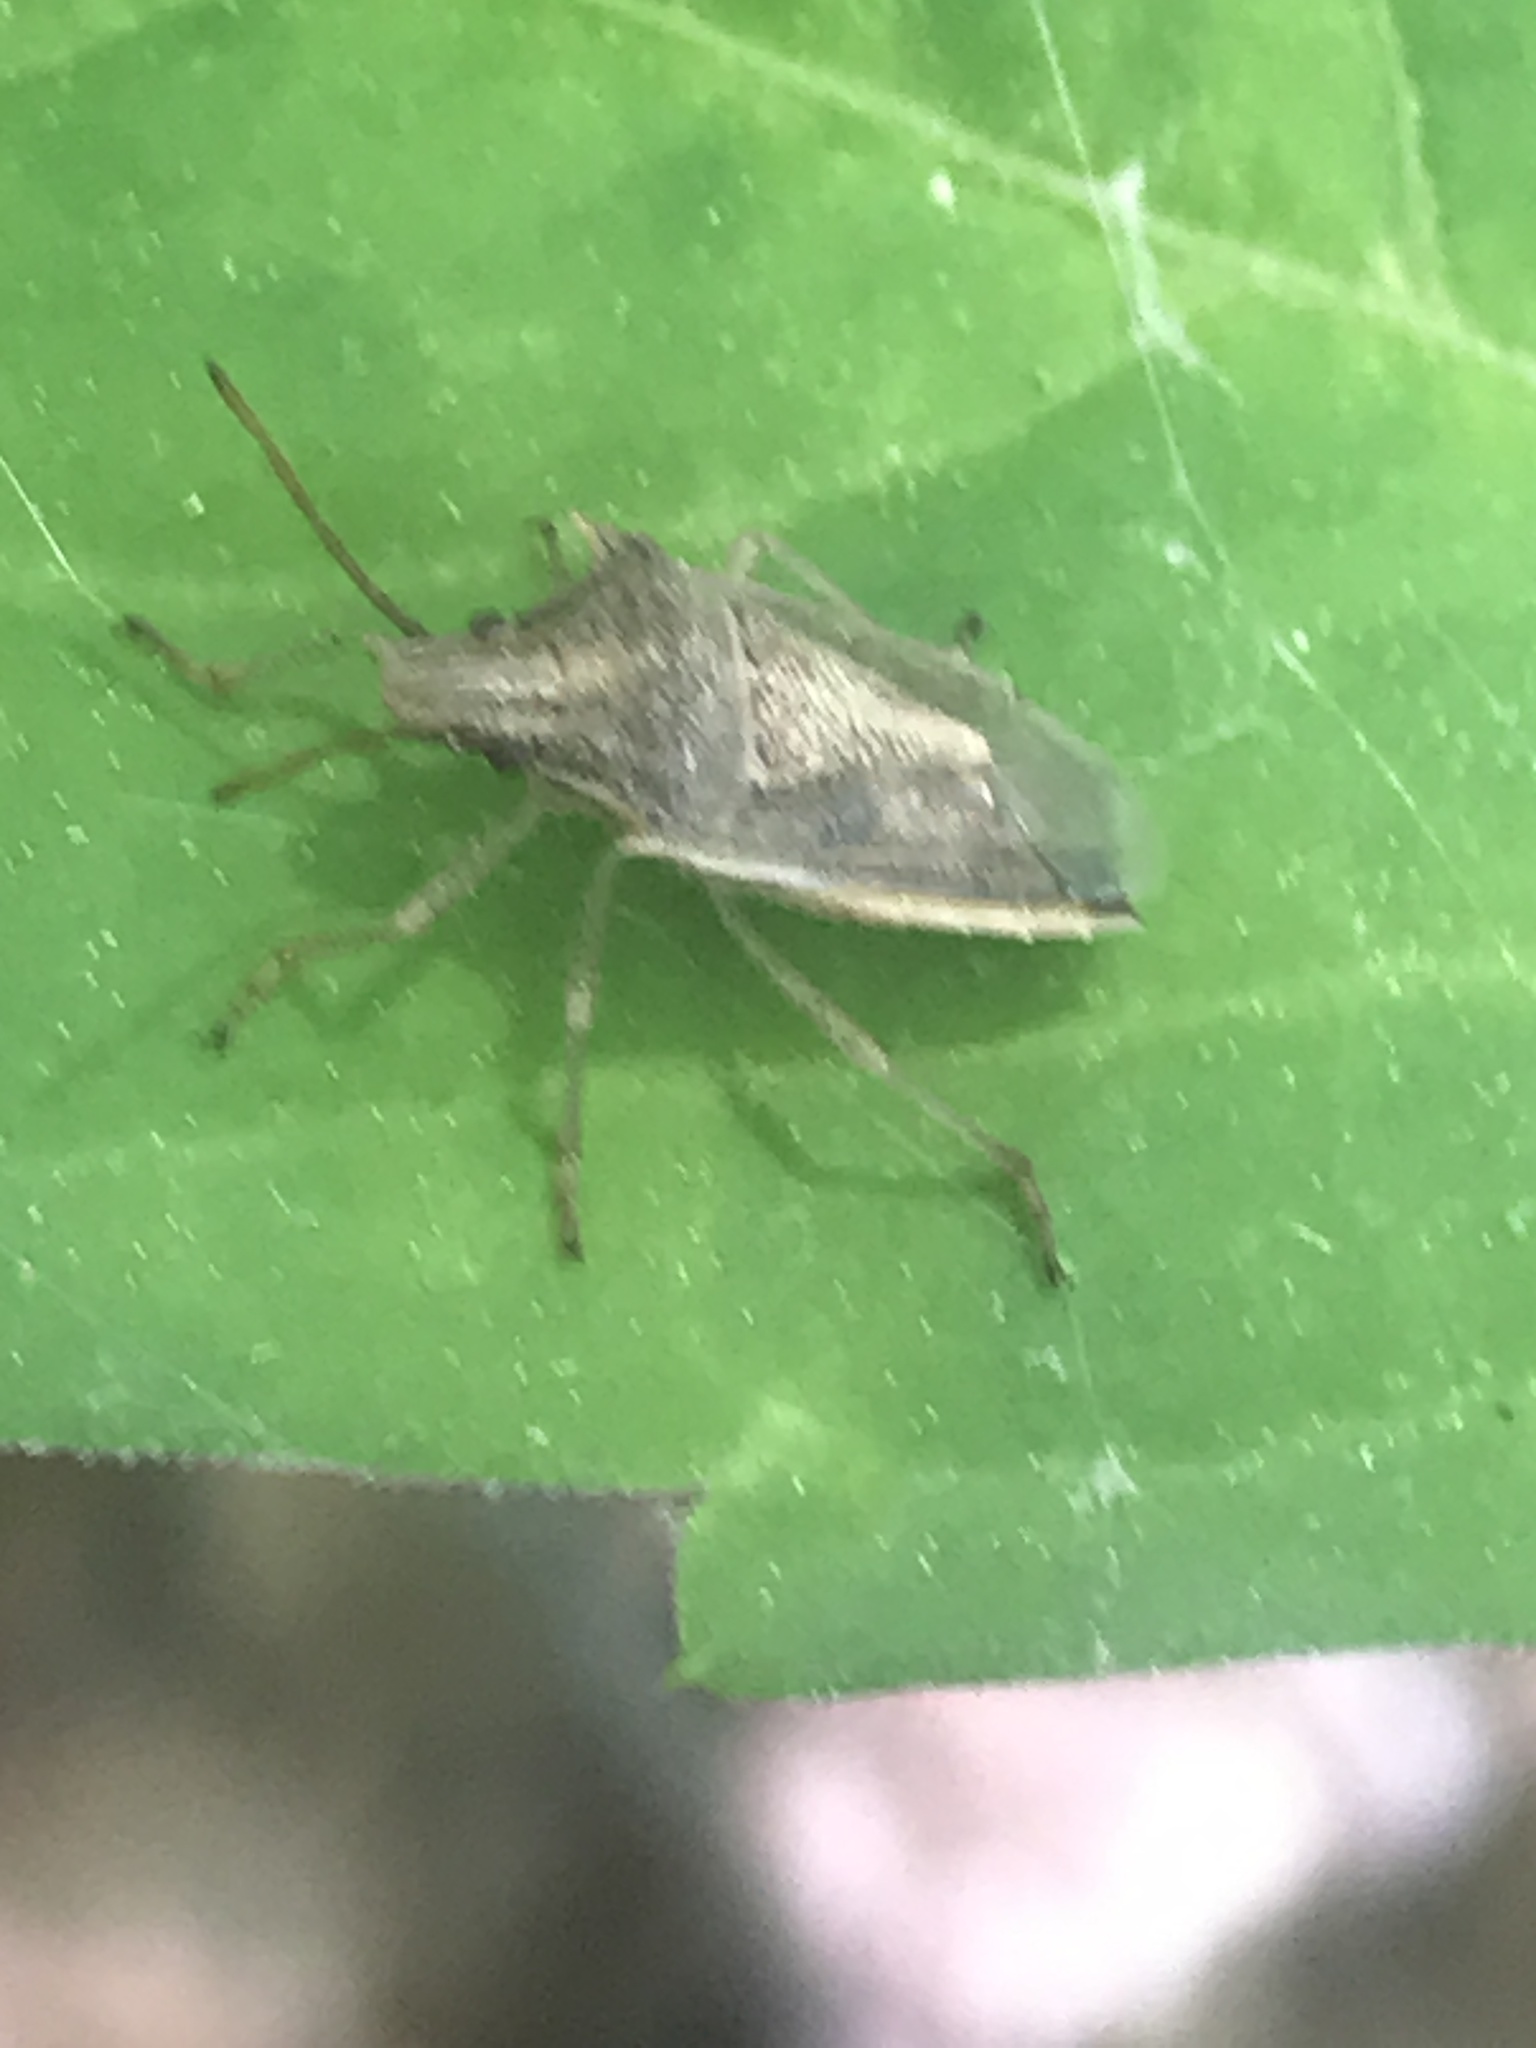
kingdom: Animalia
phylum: Arthropoda
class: Insecta
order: Hemiptera
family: Pentatomidae
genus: Oebalus
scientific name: Oebalus pugnax
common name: Rice stink bug
